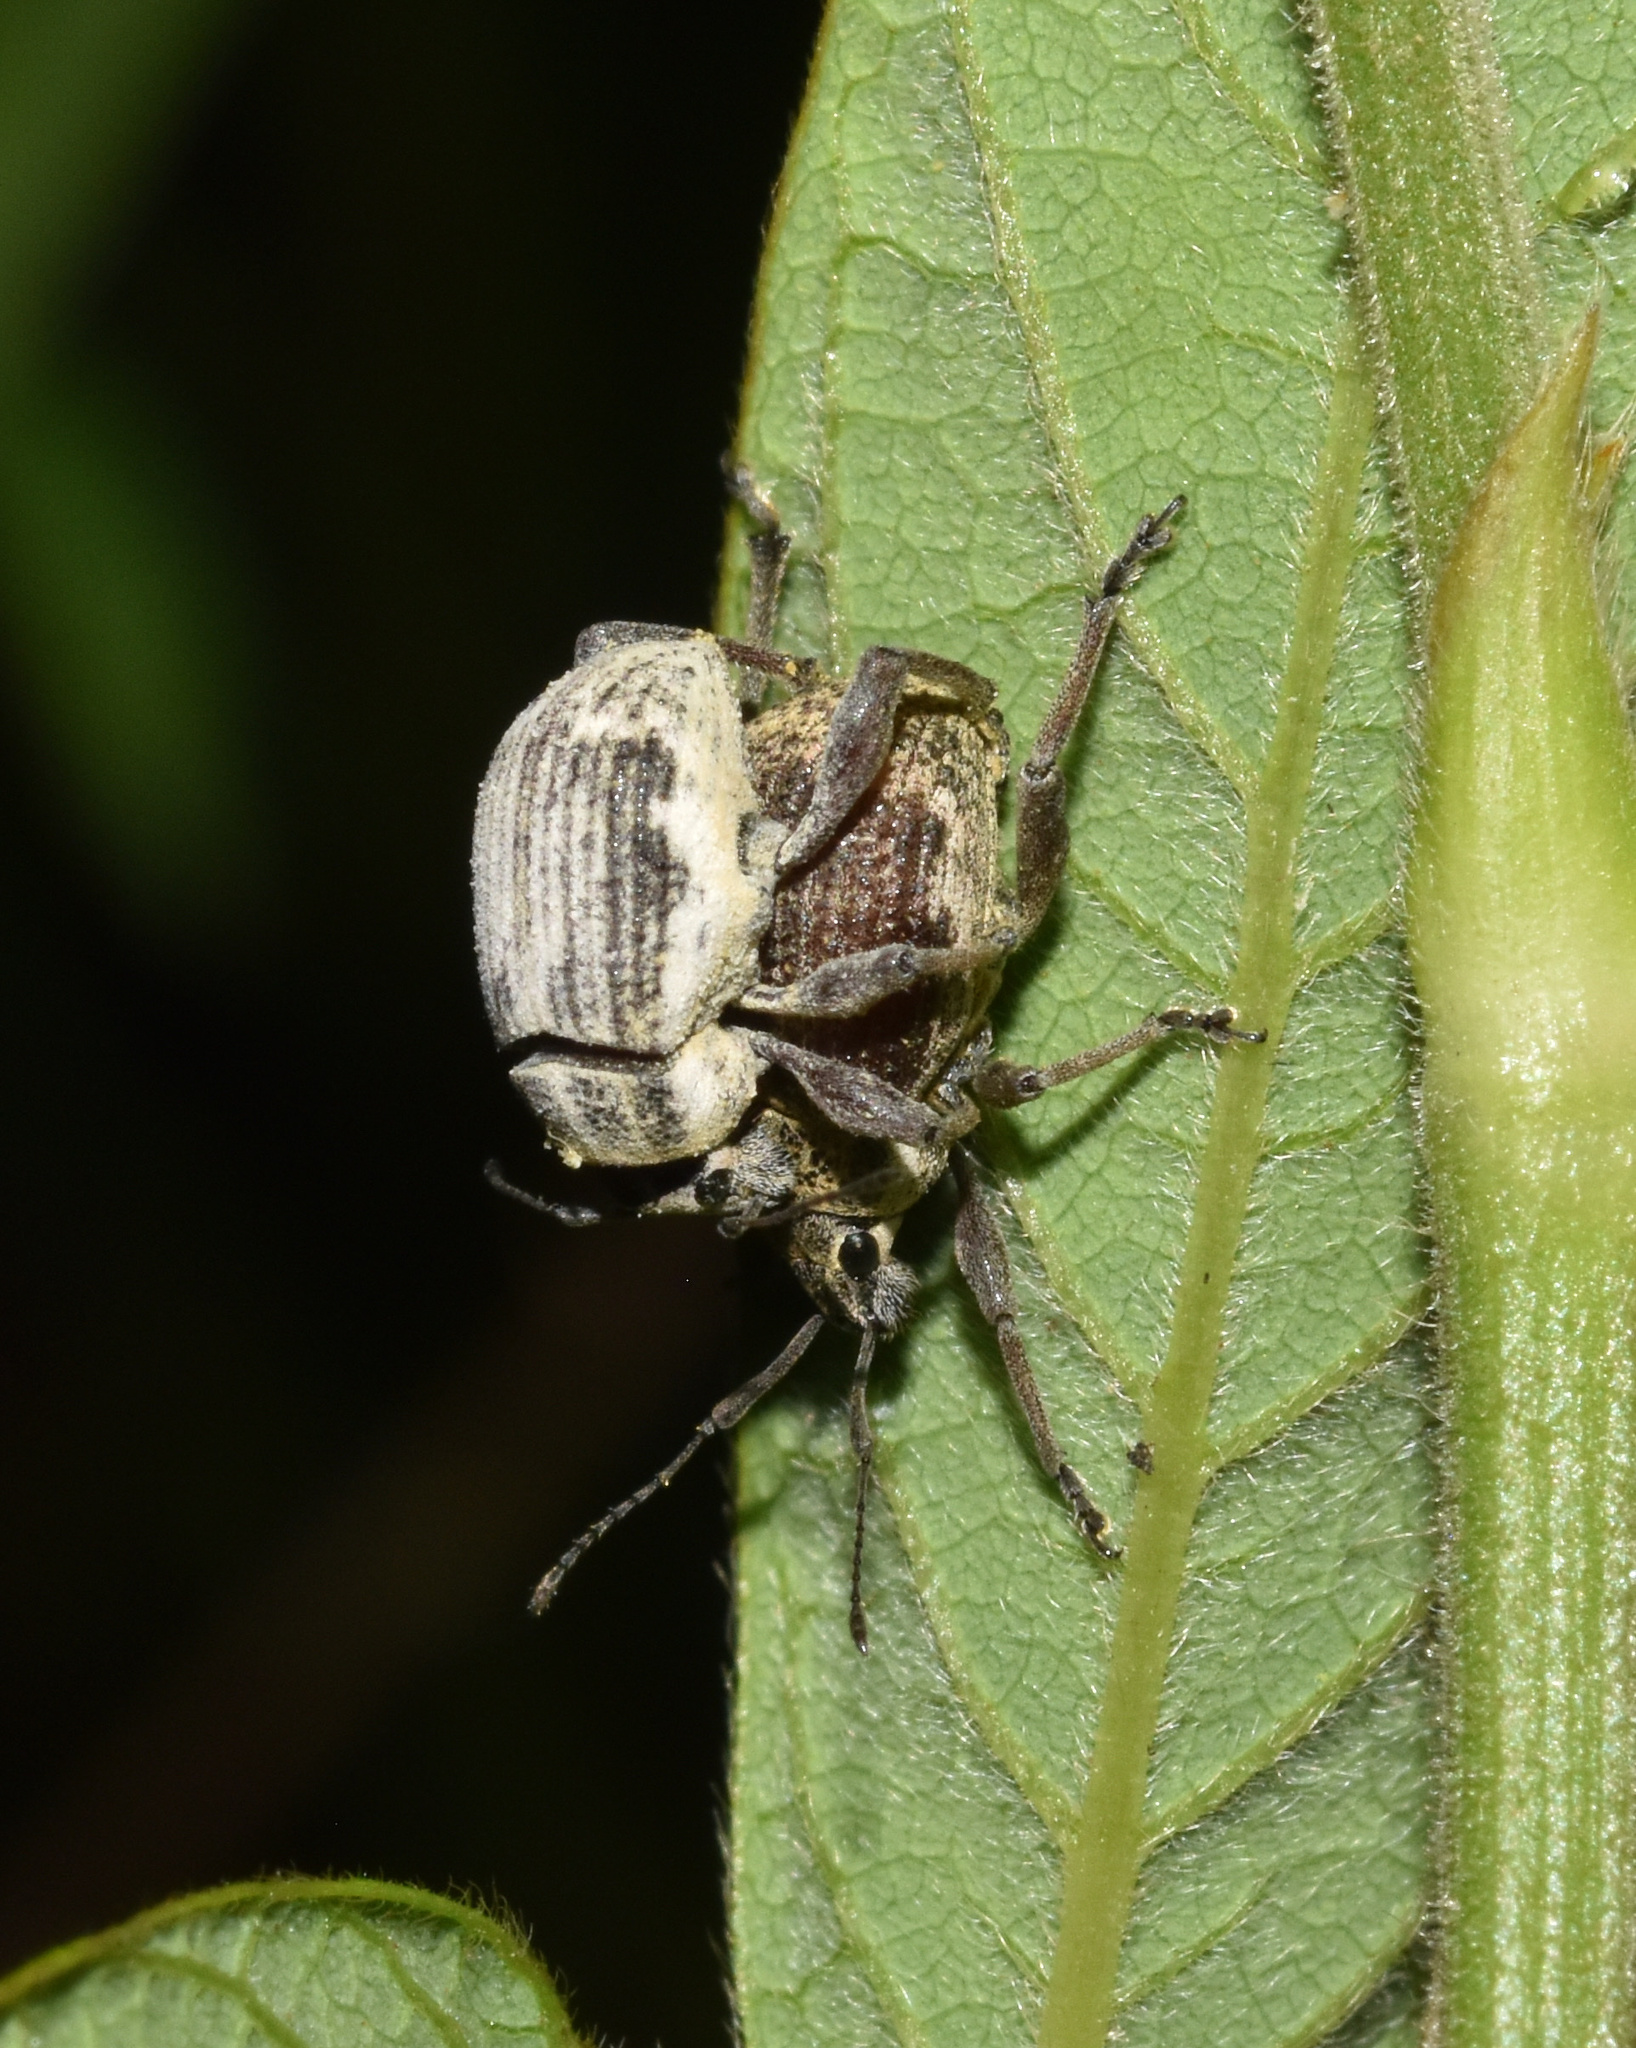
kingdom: Animalia
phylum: Arthropoda
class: Insecta
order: Coleoptera
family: Curculionidae
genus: Sciobius
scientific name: Sciobius pullus
